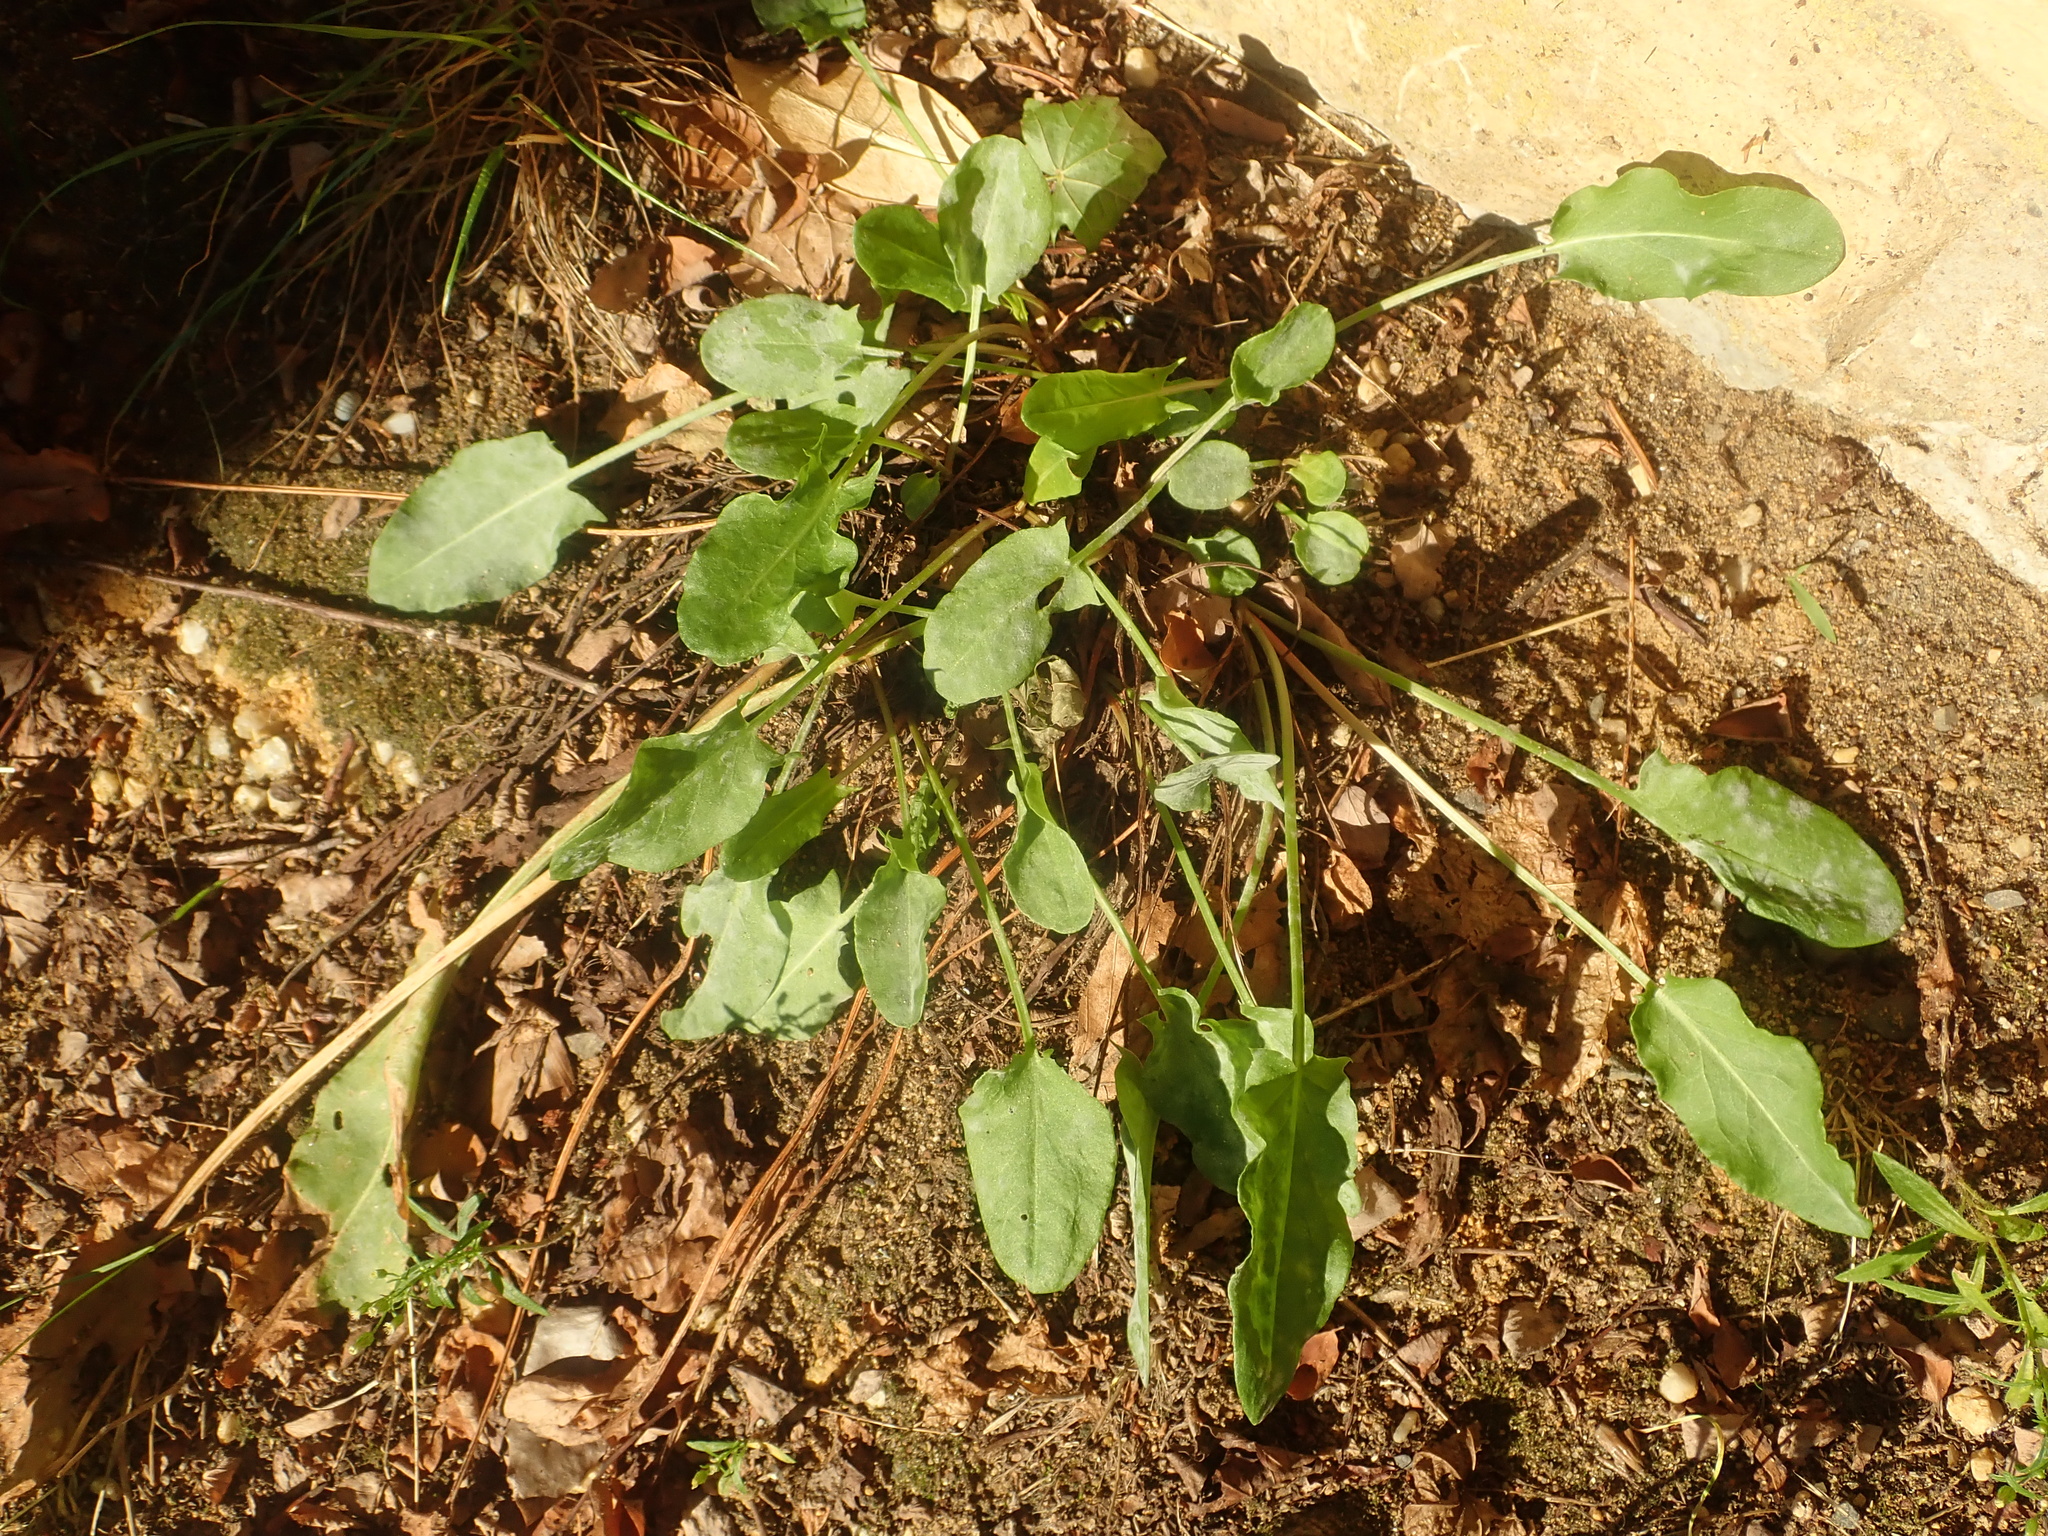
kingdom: Plantae
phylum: Tracheophyta
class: Magnoliopsida
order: Caryophyllales
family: Polygonaceae
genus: Rumex
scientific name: Rumex acetosa
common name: Garden sorrel
